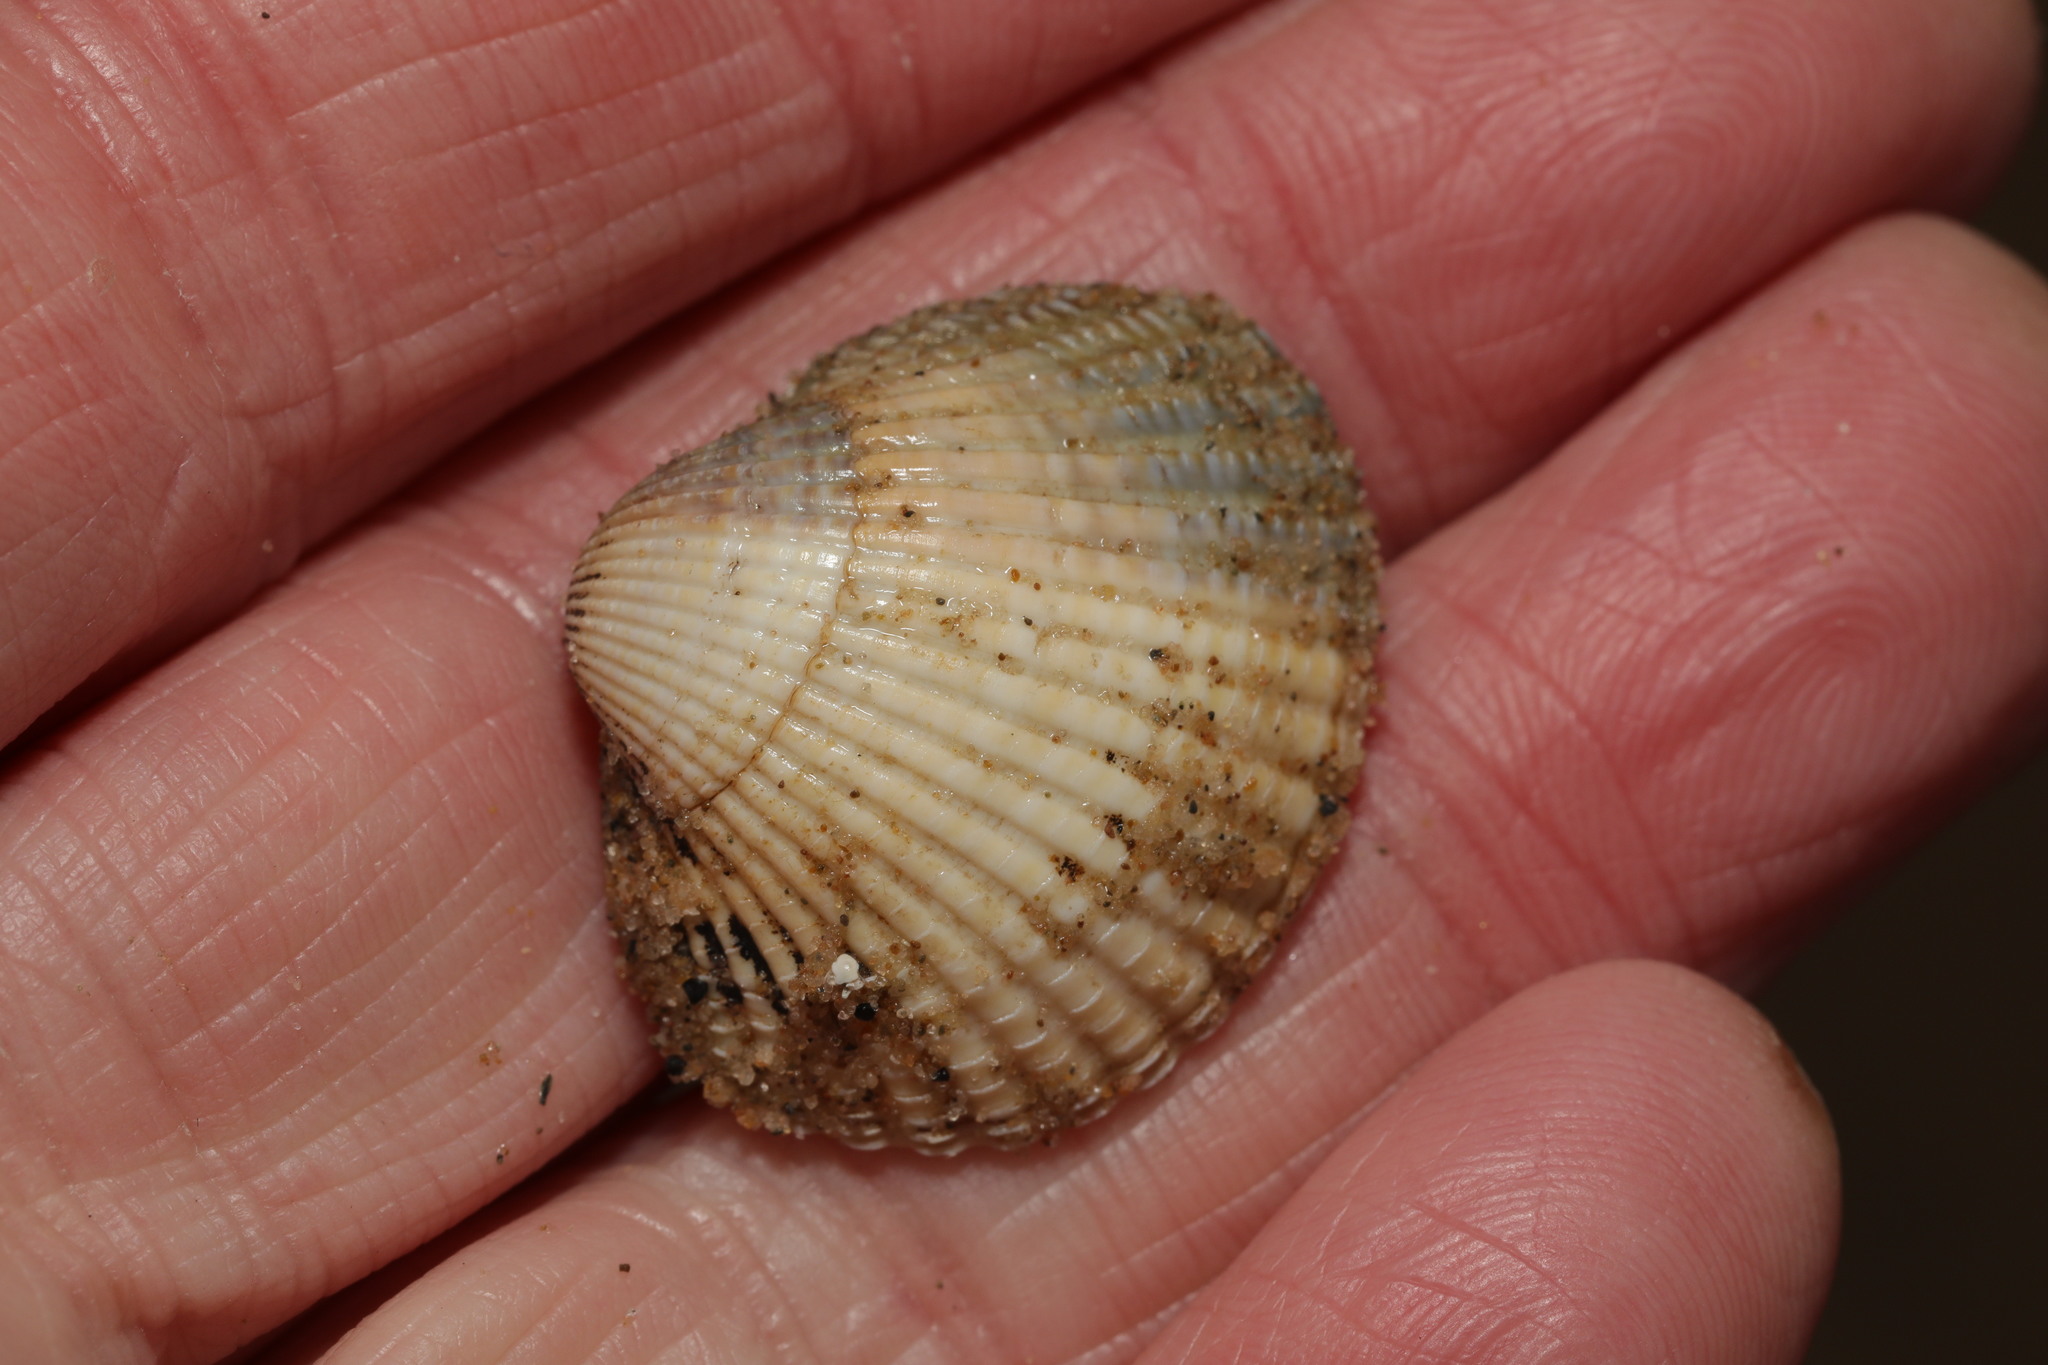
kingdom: Animalia
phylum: Mollusca
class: Bivalvia
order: Cardiida
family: Cardiidae
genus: Cerastoderma
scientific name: Cerastoderma edule
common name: Common cockle
